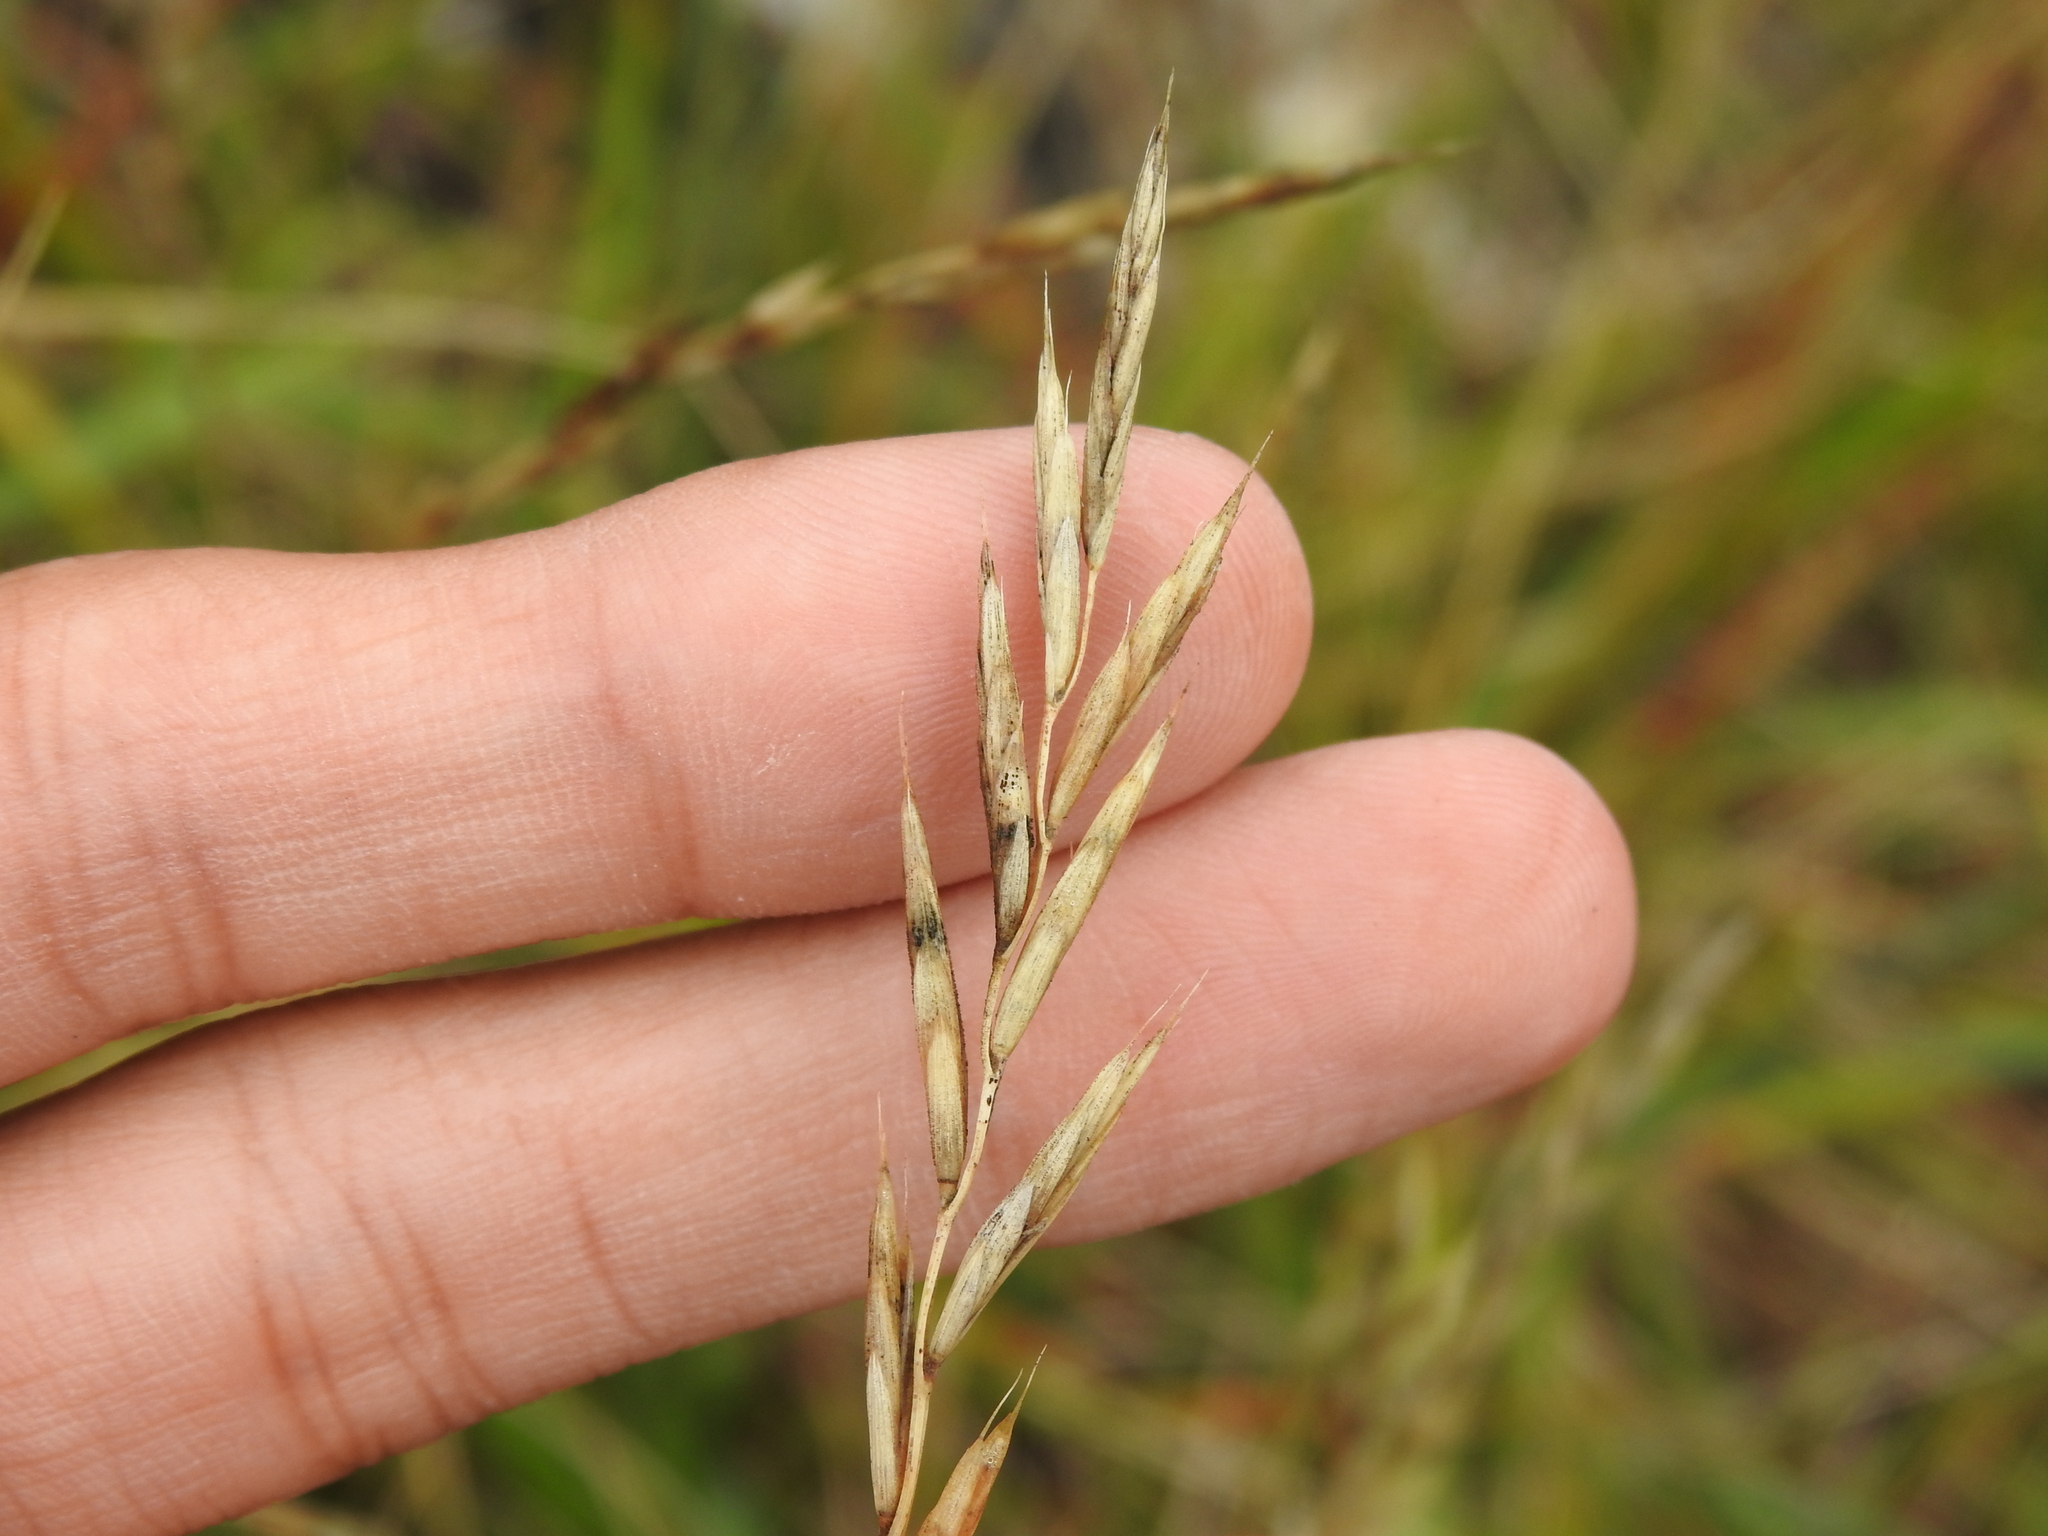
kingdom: Plantae
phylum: Tracheophyta
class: Liliopsida
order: Poales
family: Poaceae
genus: Elymus
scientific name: Elymus repens
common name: Quackgrass
